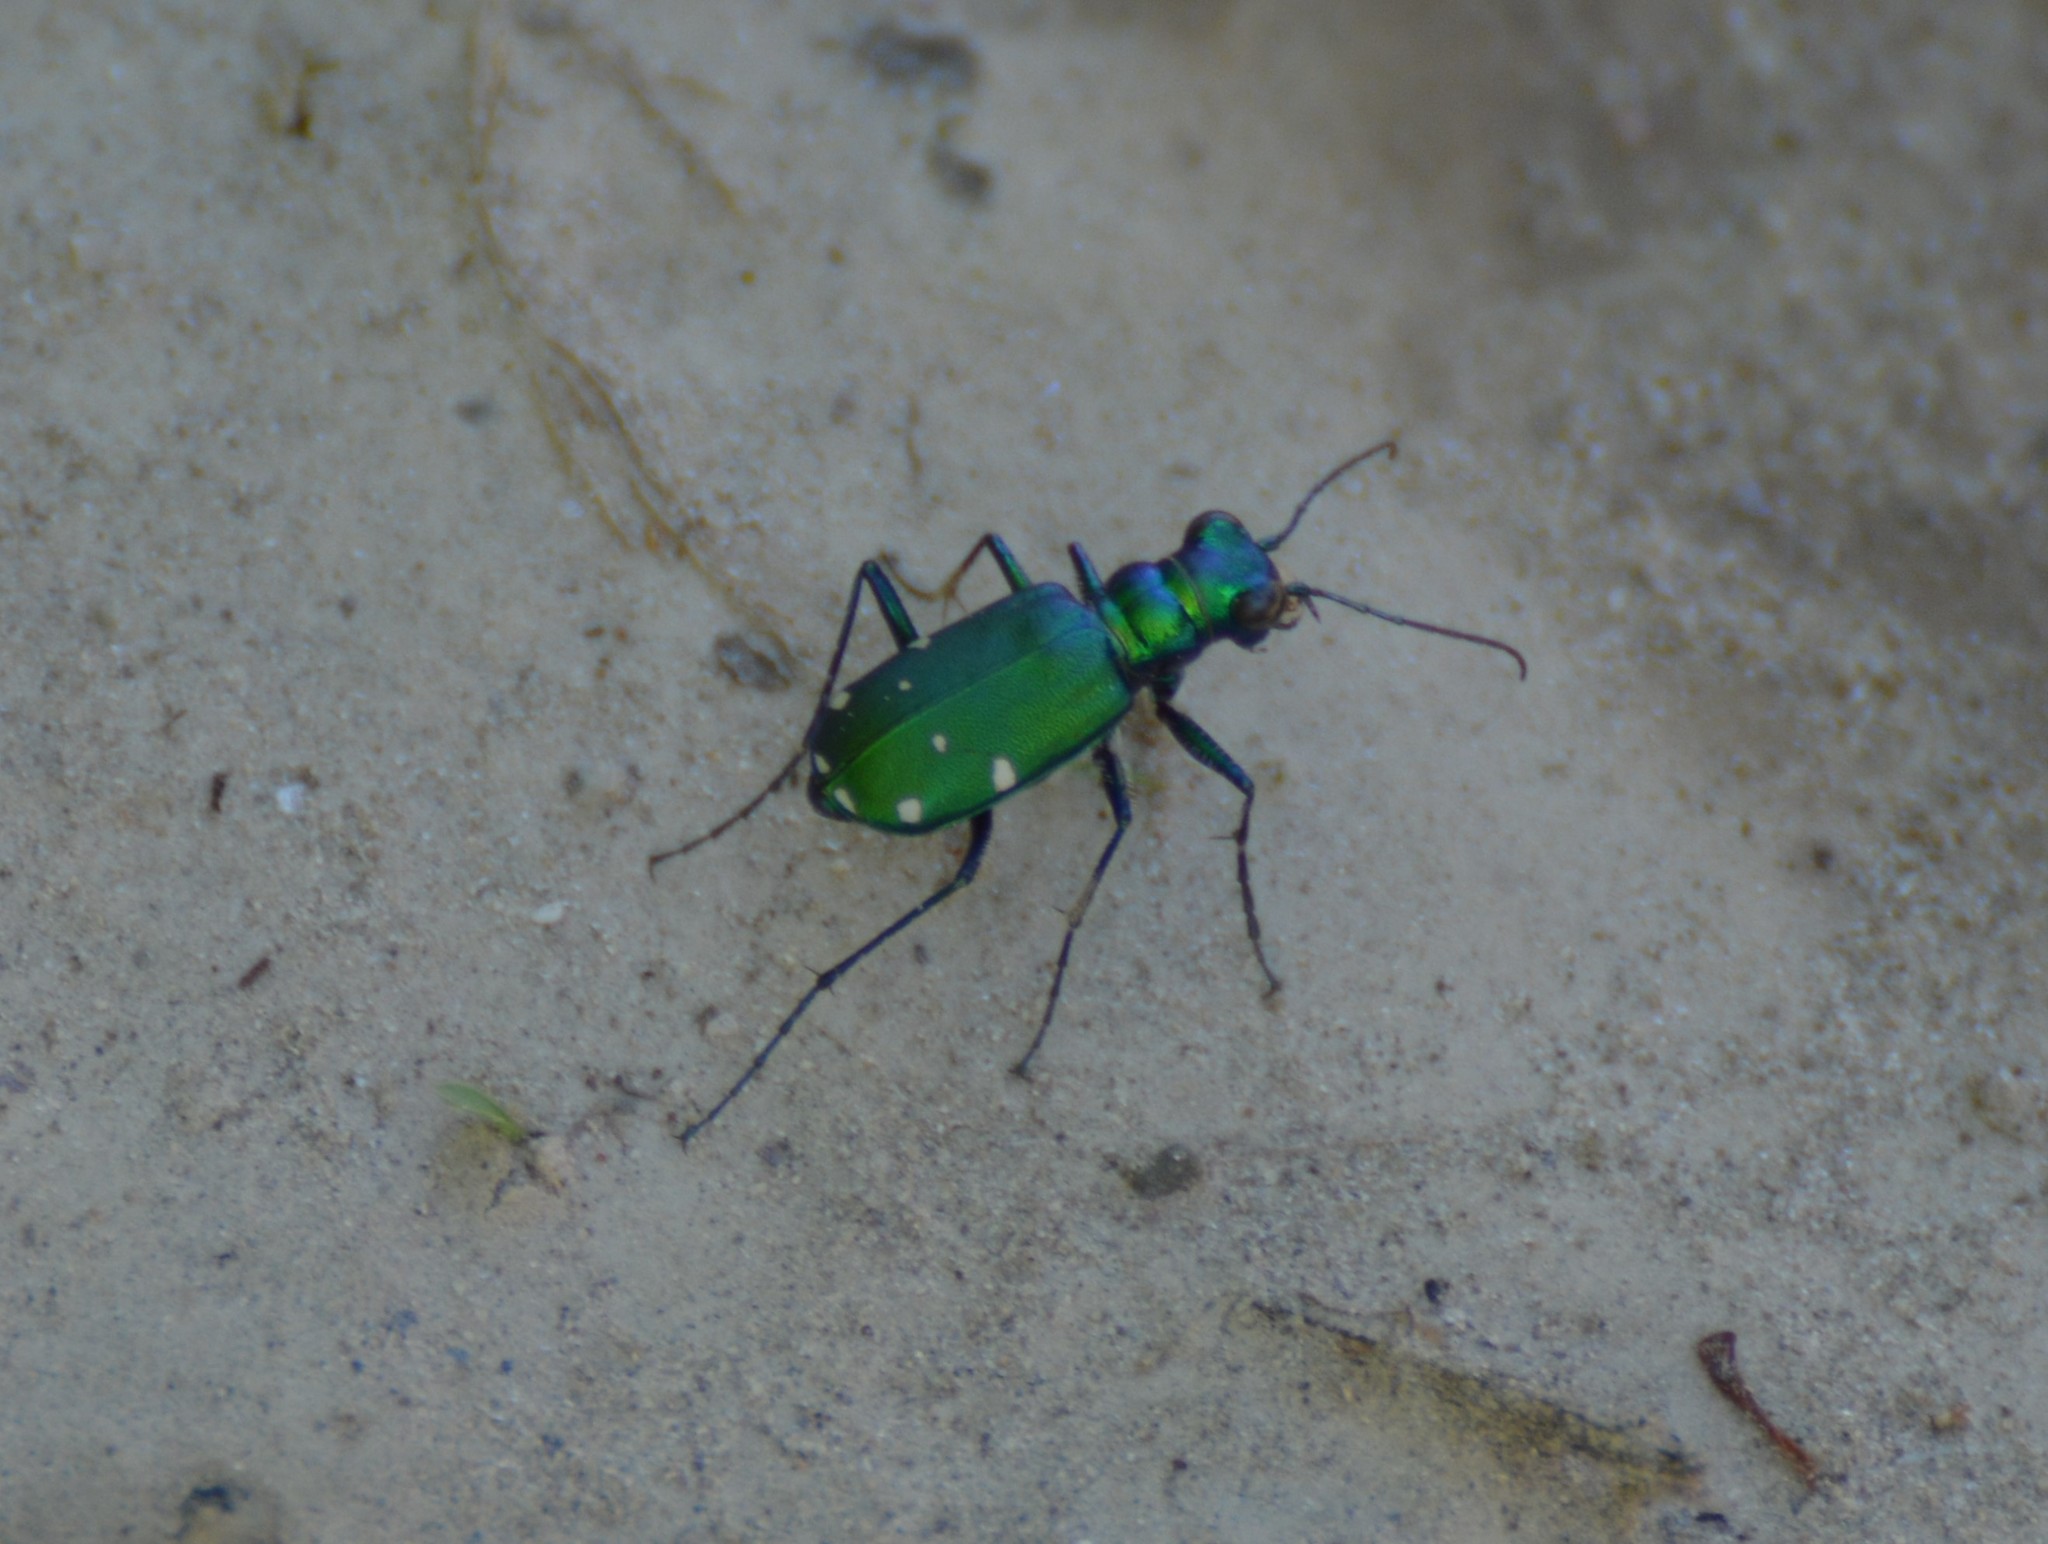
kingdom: Animalia
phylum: Arthropoda
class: Insecta
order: Coleoptera
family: Carabidae
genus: Cicindela
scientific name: Cicindela sexguttata
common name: Six-spotted tiger beetle
